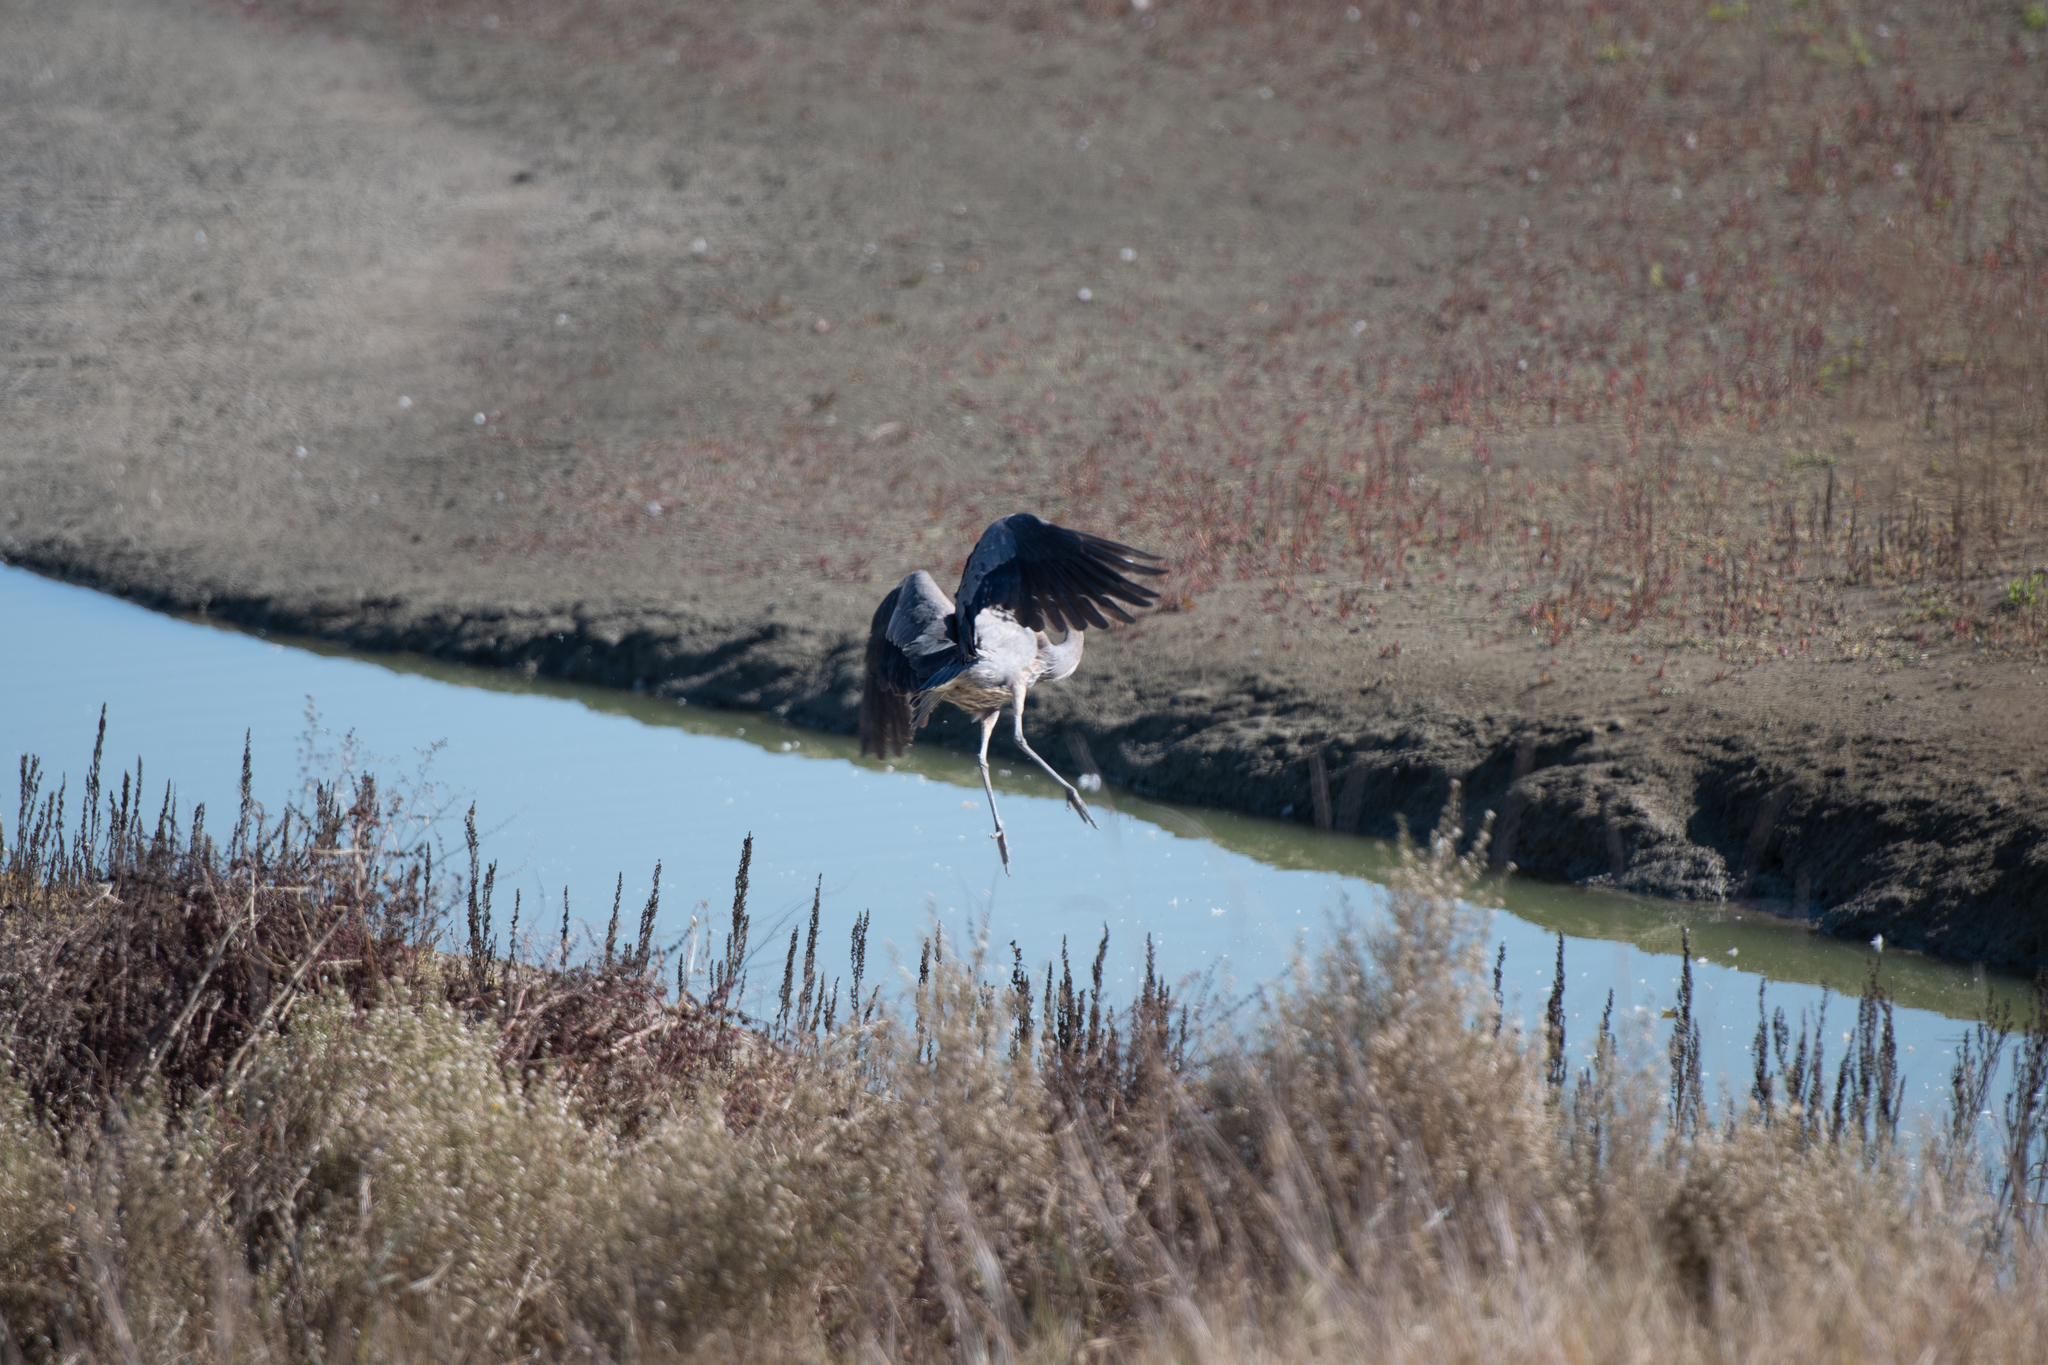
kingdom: Animalia
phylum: Chordata
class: Aves
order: Pelecaniformes
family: Ardeidae
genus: Ardea
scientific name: Ardea herodias
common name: Great blue heron
